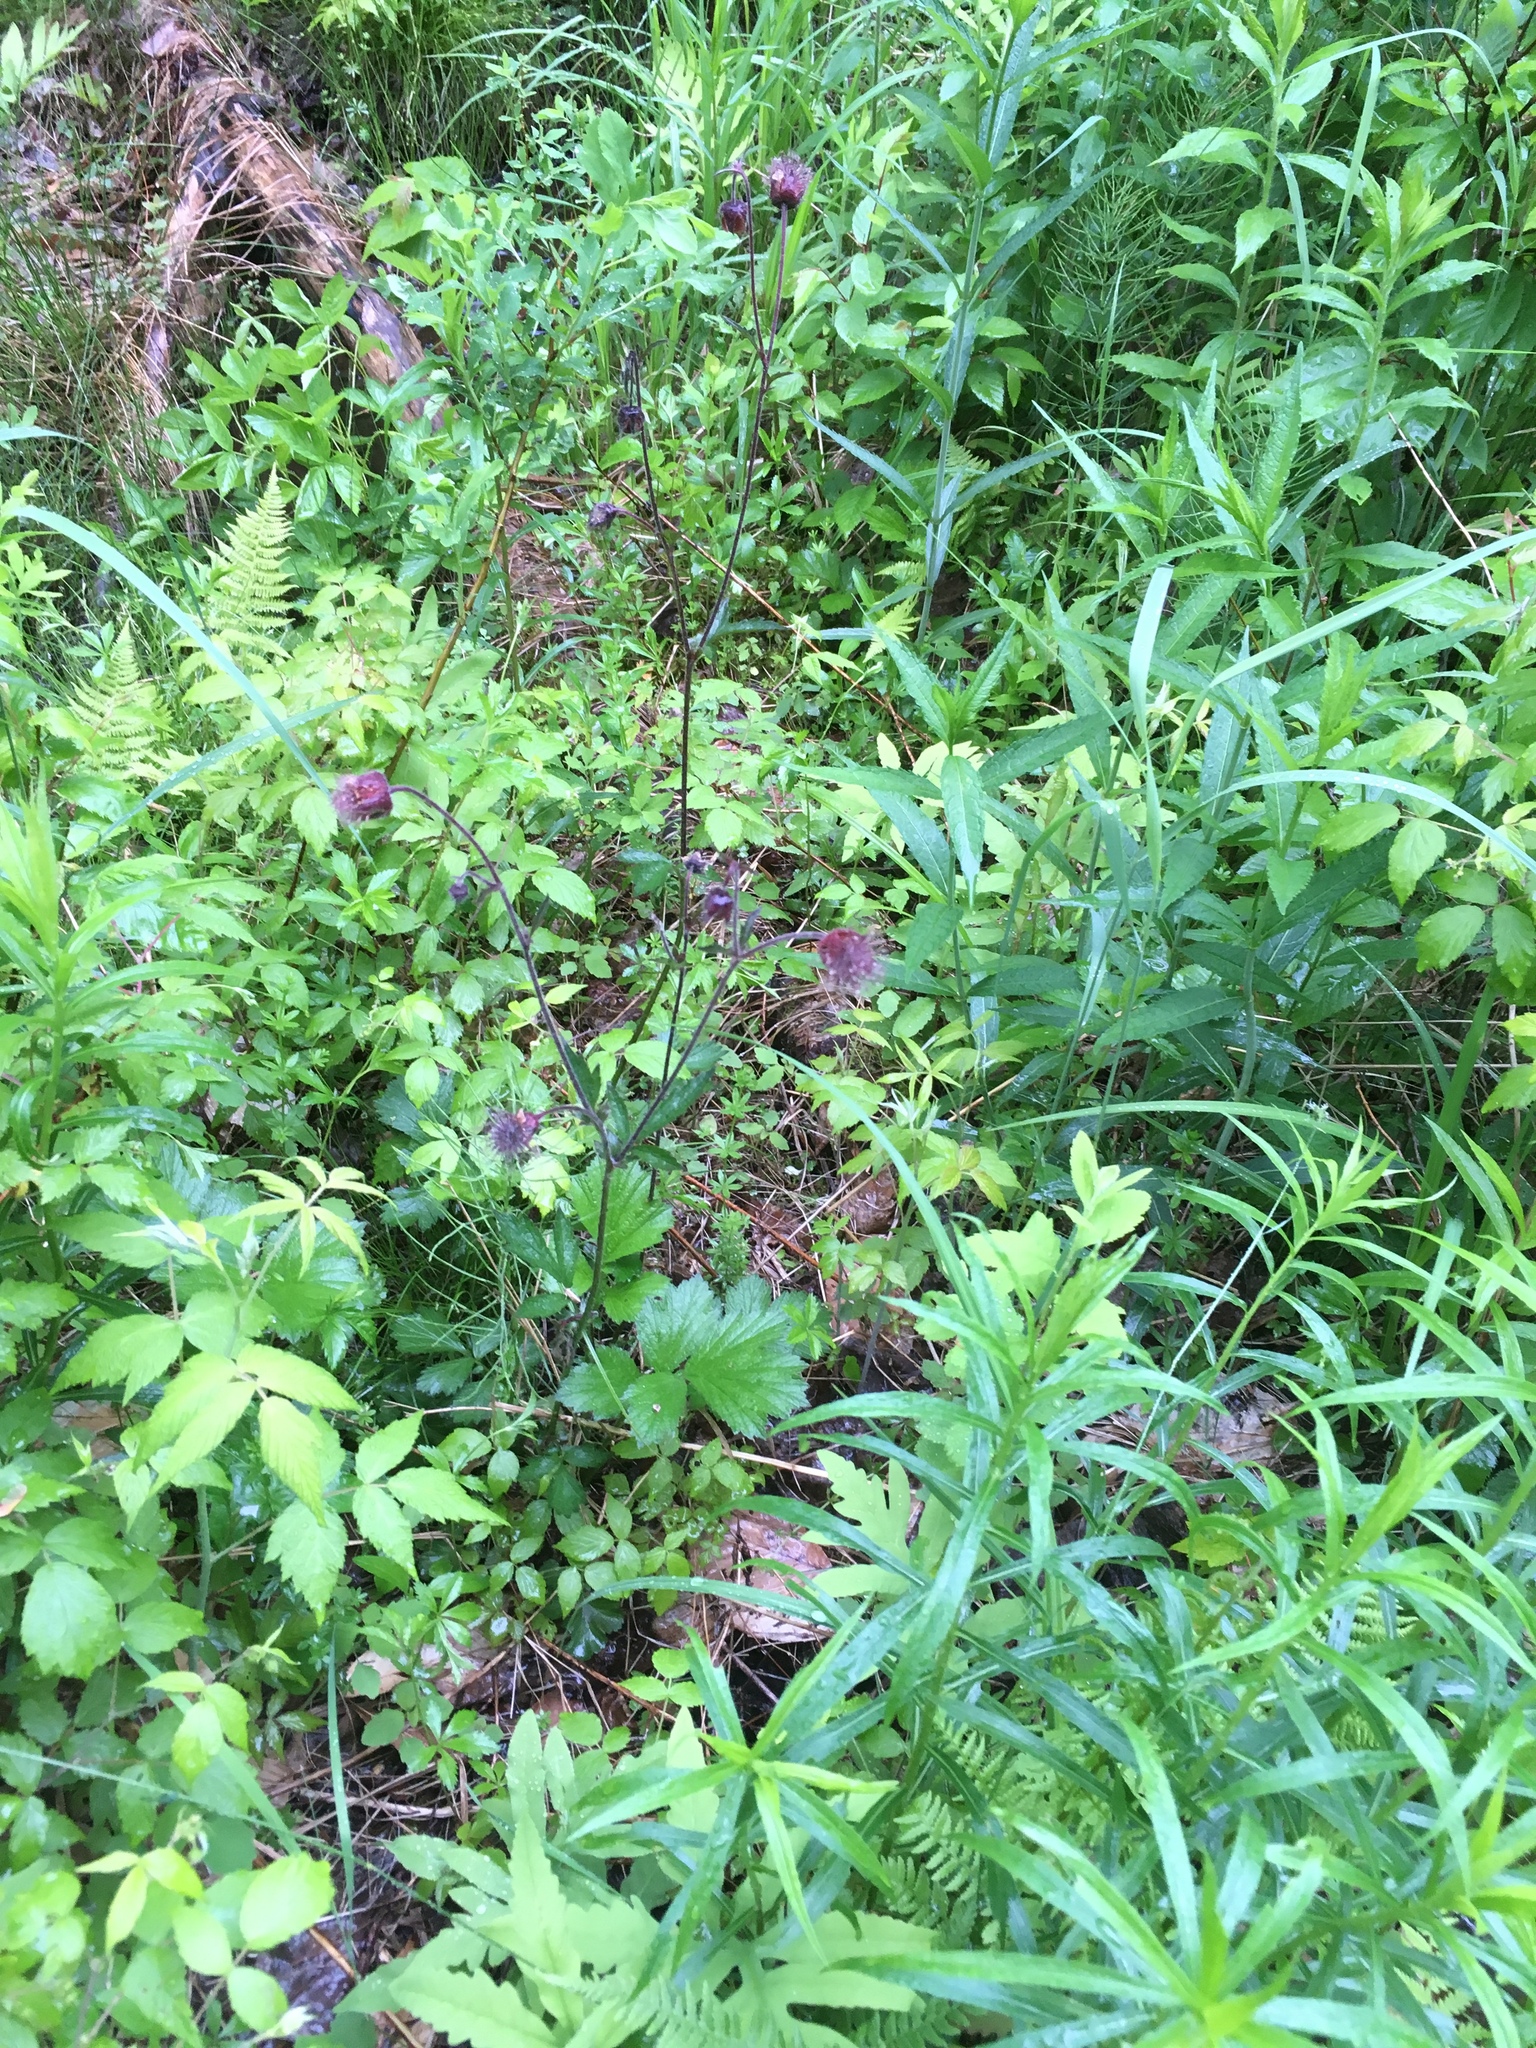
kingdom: Plantae
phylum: Tracheophyta
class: Magnoliopsida
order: Rosales
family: Rosaceae
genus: Geum
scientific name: Geum rivale
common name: Water avens
